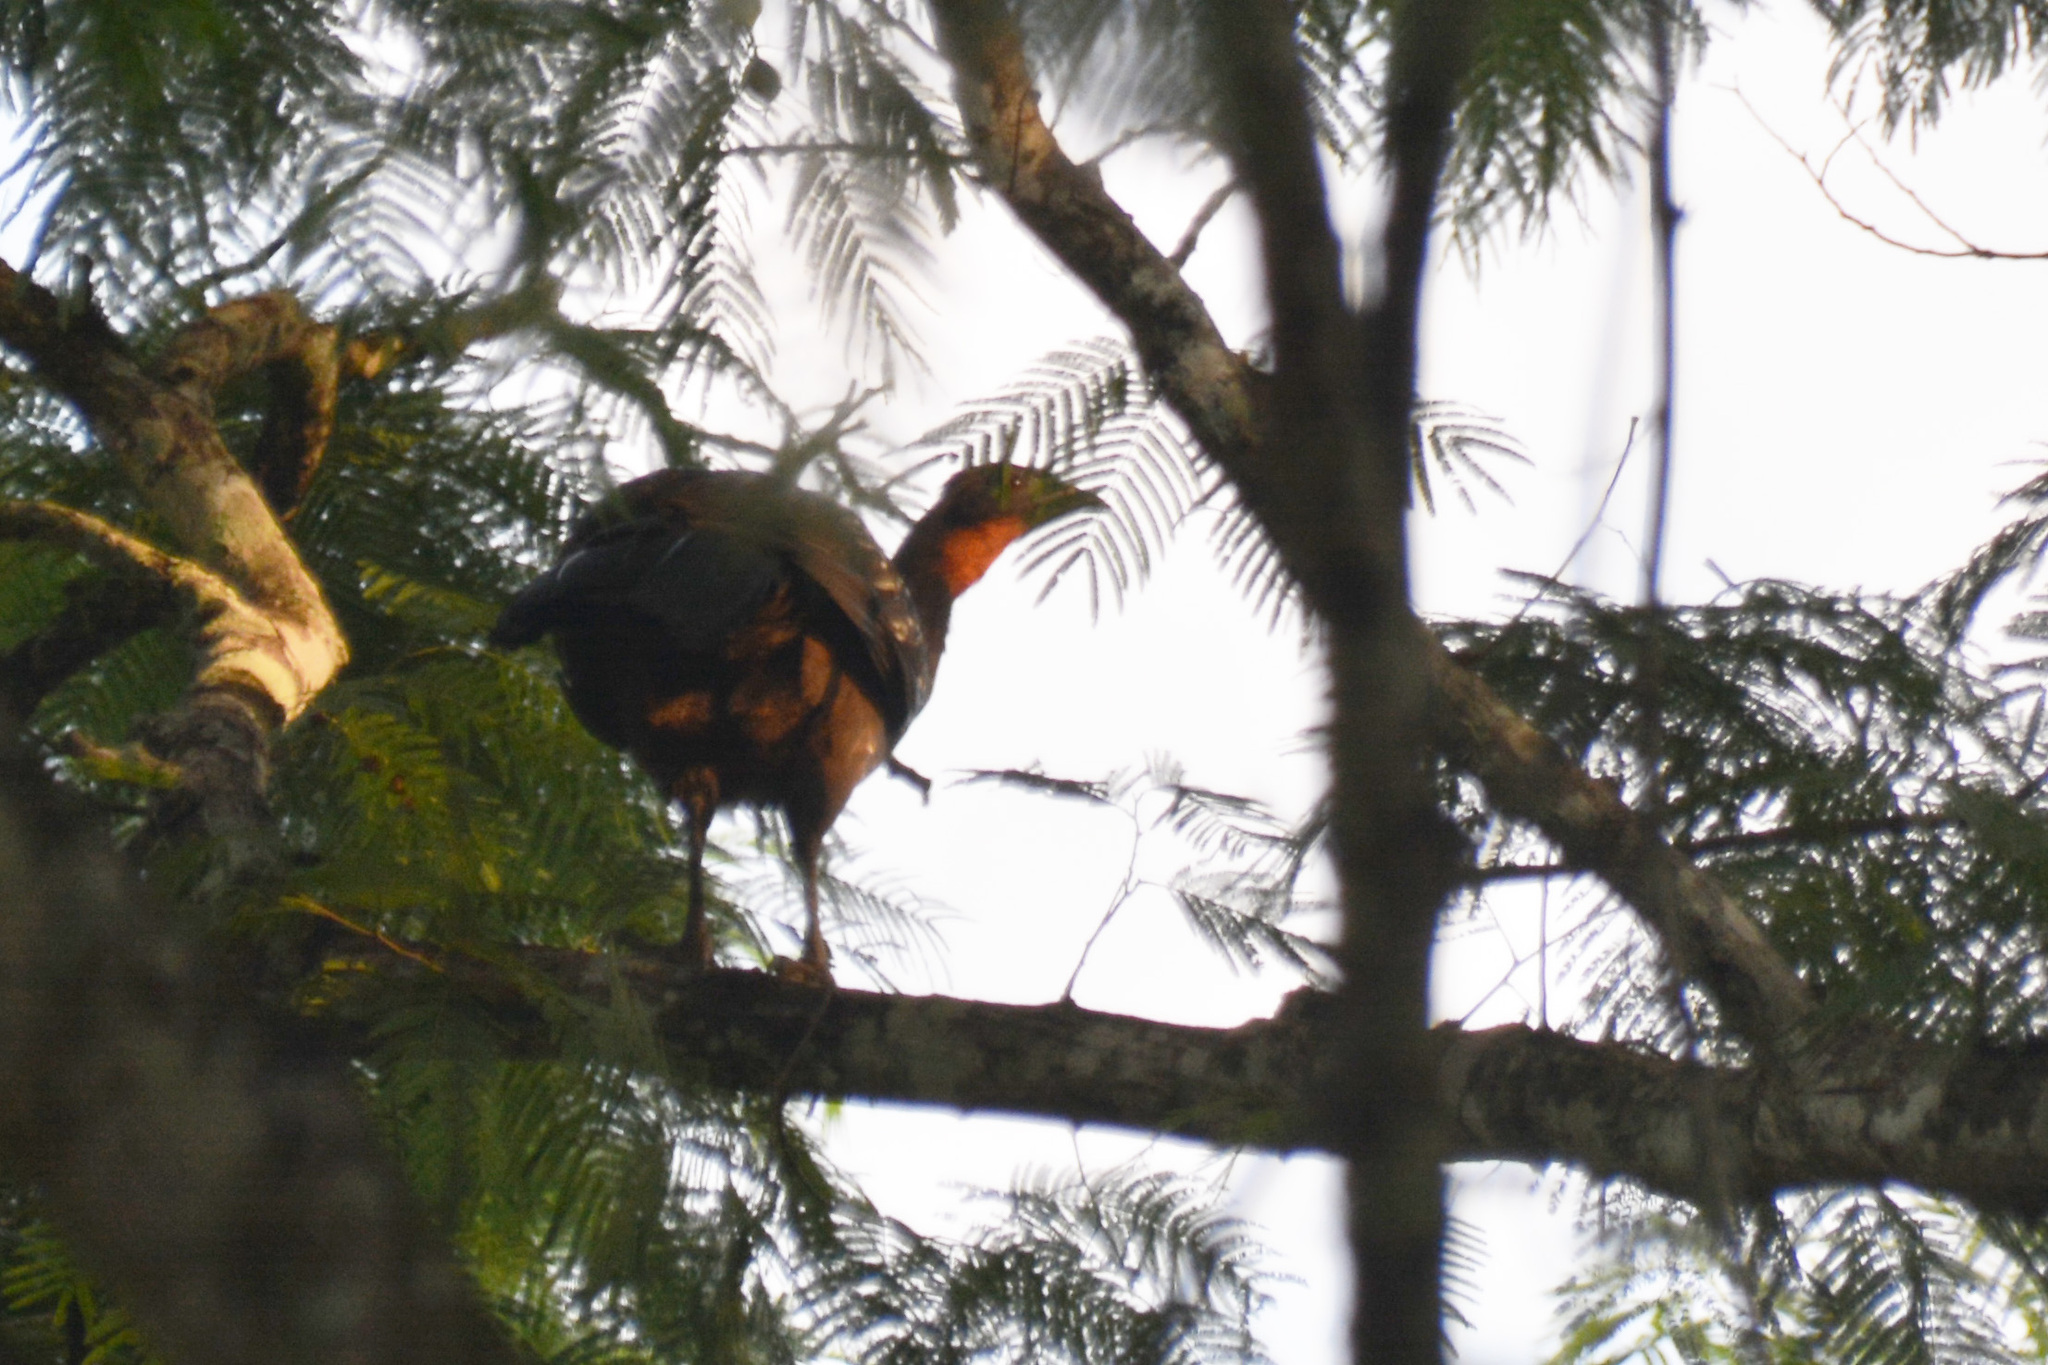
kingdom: Animalia
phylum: Chordata
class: Aves
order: Galliformes
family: Cracidae
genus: Penelope
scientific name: Penelope bridgesi
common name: Yungas guan
